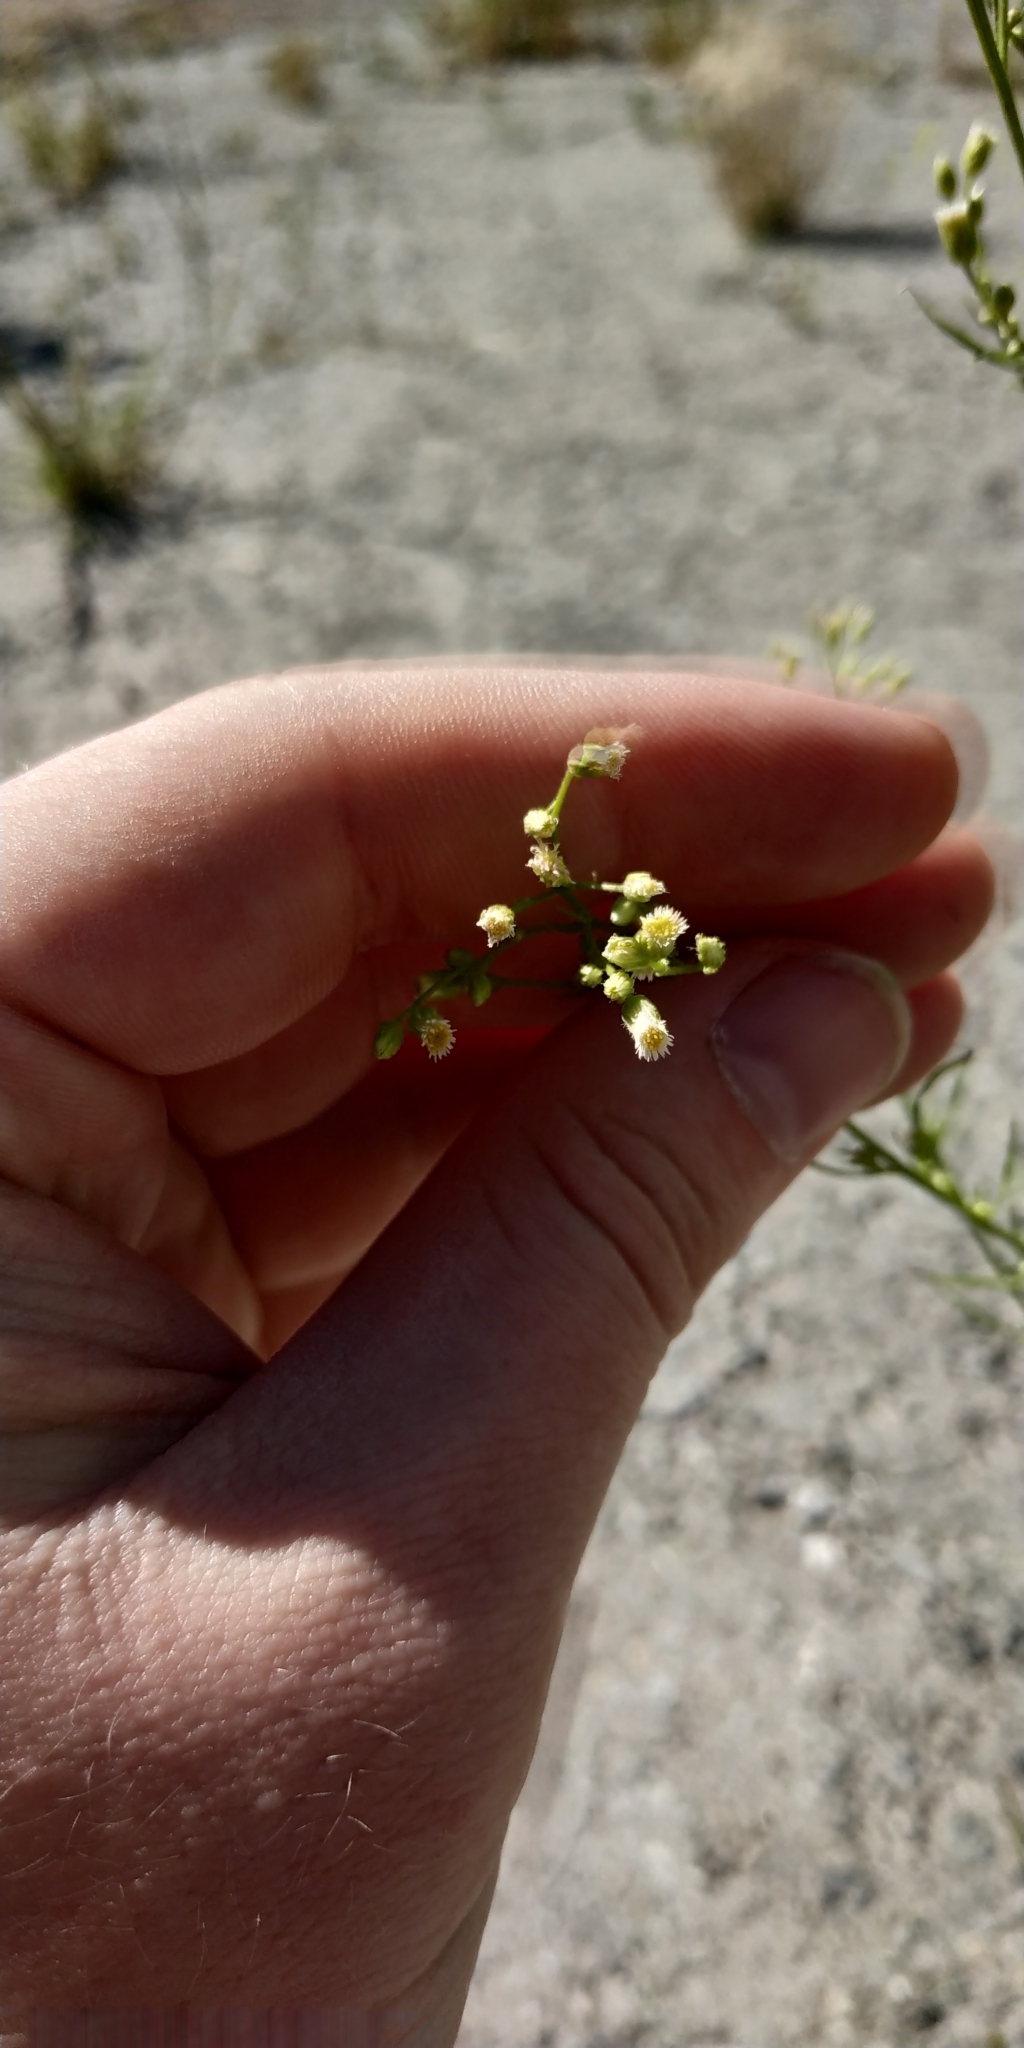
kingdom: Plantae
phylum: Tracheophyta
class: Magnoliopsida
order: Asterales
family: Asteraceae
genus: Erigeron
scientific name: Erigeron canadensis
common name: Canadian fleabane
